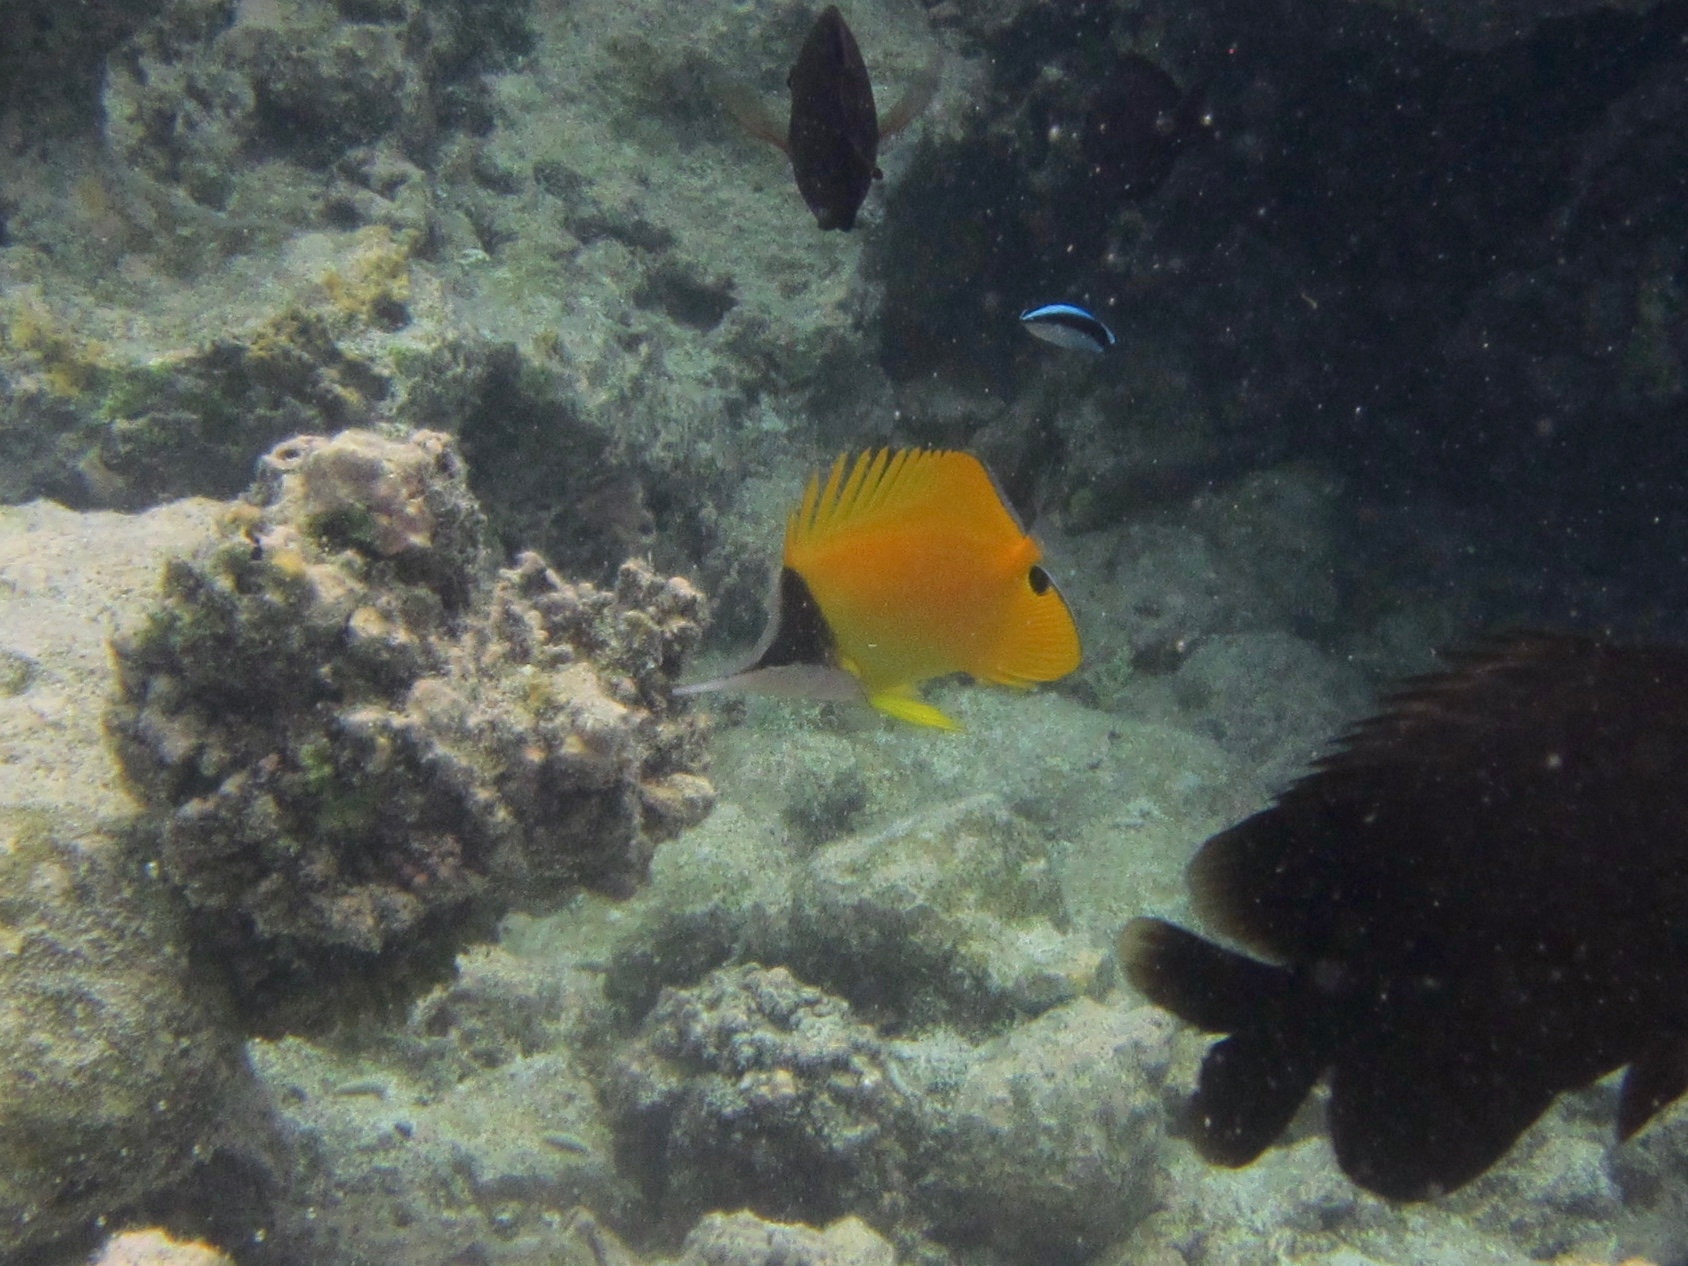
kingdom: Animalia
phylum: Chordata
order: Perciformes
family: Chaetodontidae
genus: Forcipiger
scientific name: Forcipiger flavissimus
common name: Forcepsfish
